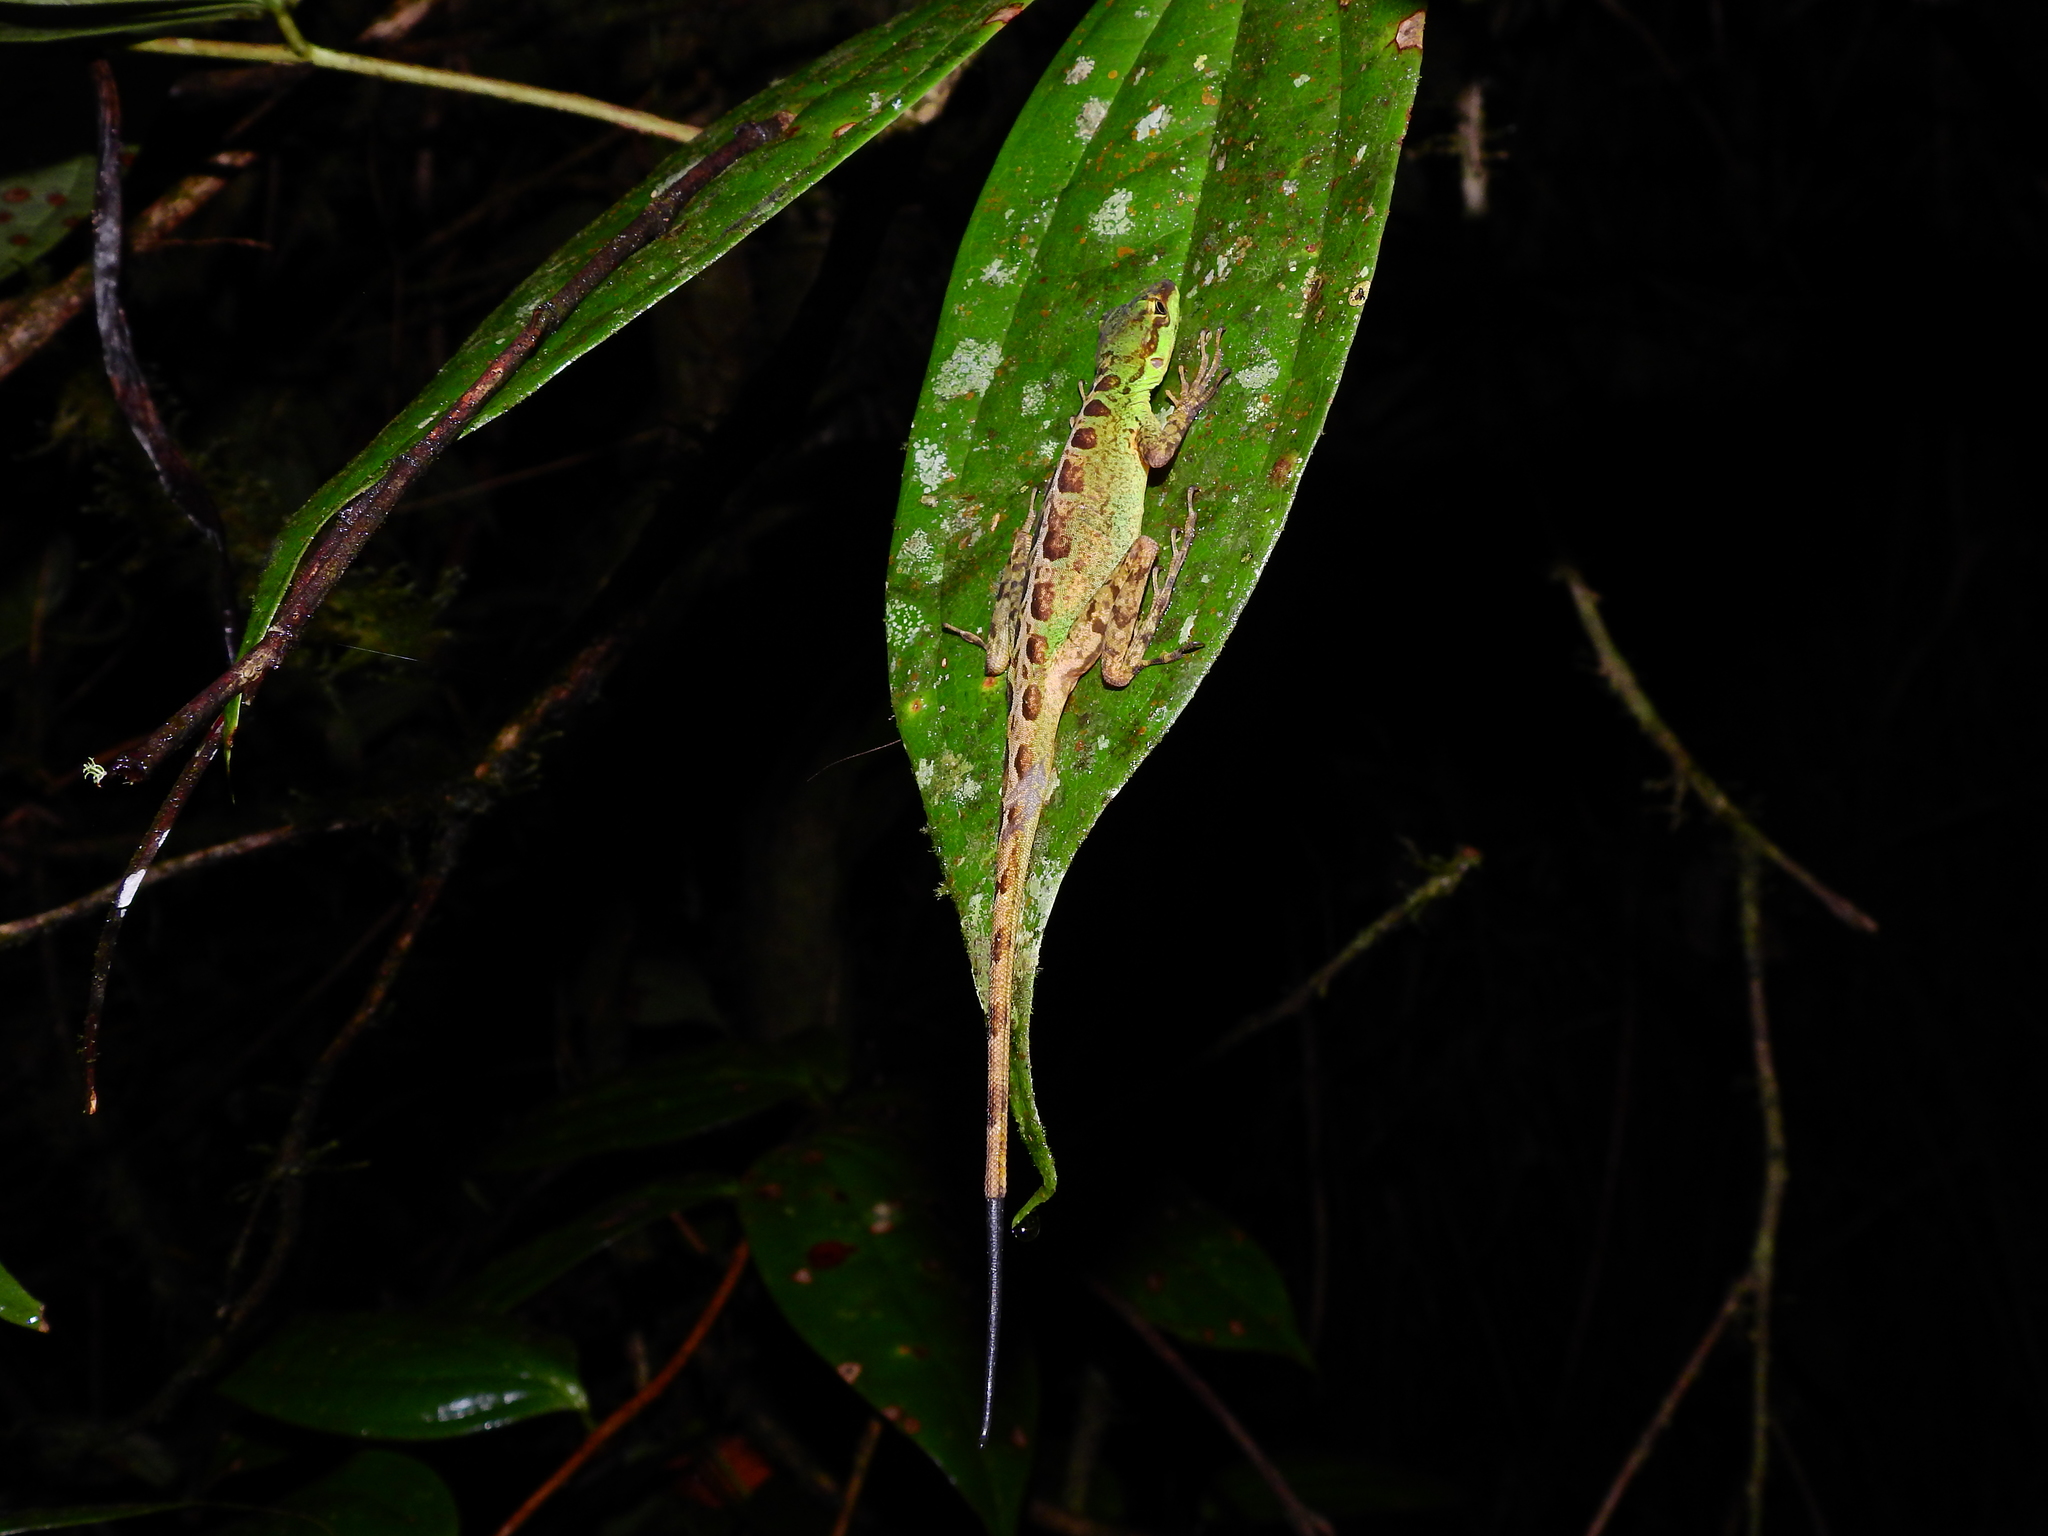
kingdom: Animalia
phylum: Chordata
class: Squamata
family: Dactyloidae
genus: Anolis
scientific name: Anolis ventrimaculatus
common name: Speckled anole
